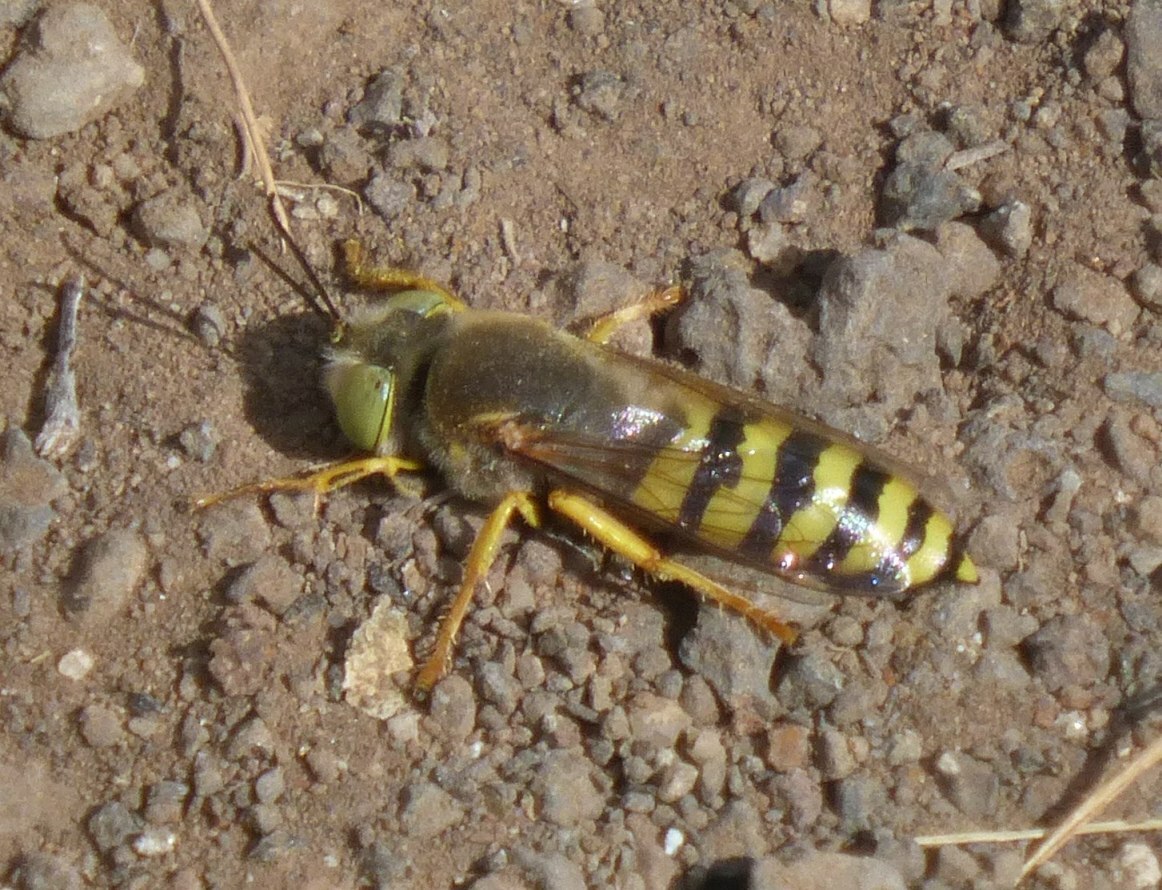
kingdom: Animalia
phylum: Arthropoda
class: Insecta
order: Hymenoptera
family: Crabronidae
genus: Bembix
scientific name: Bembix flavescens
